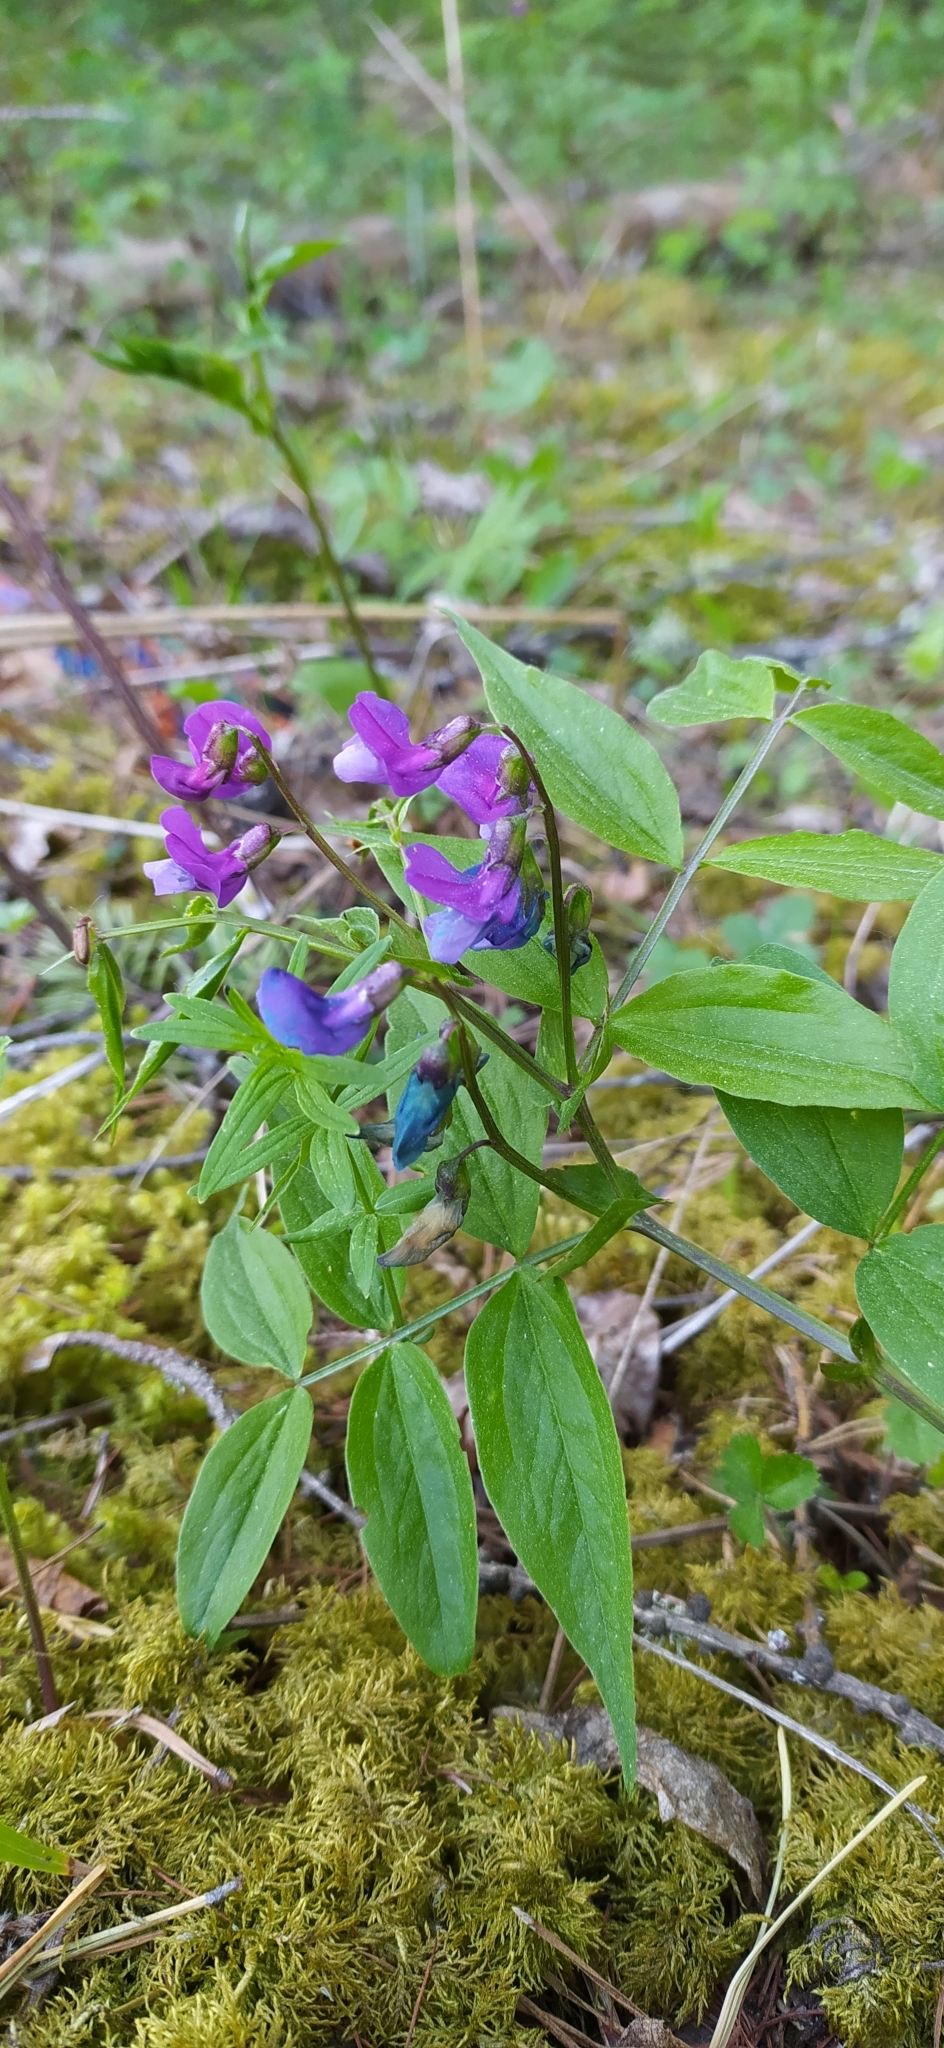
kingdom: Plantae
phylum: Tracheophyta
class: Magnoliopsida
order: Fabales
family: Fabaceae
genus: Lathyrus
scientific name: Lathyrus vernus
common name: Spring pea
